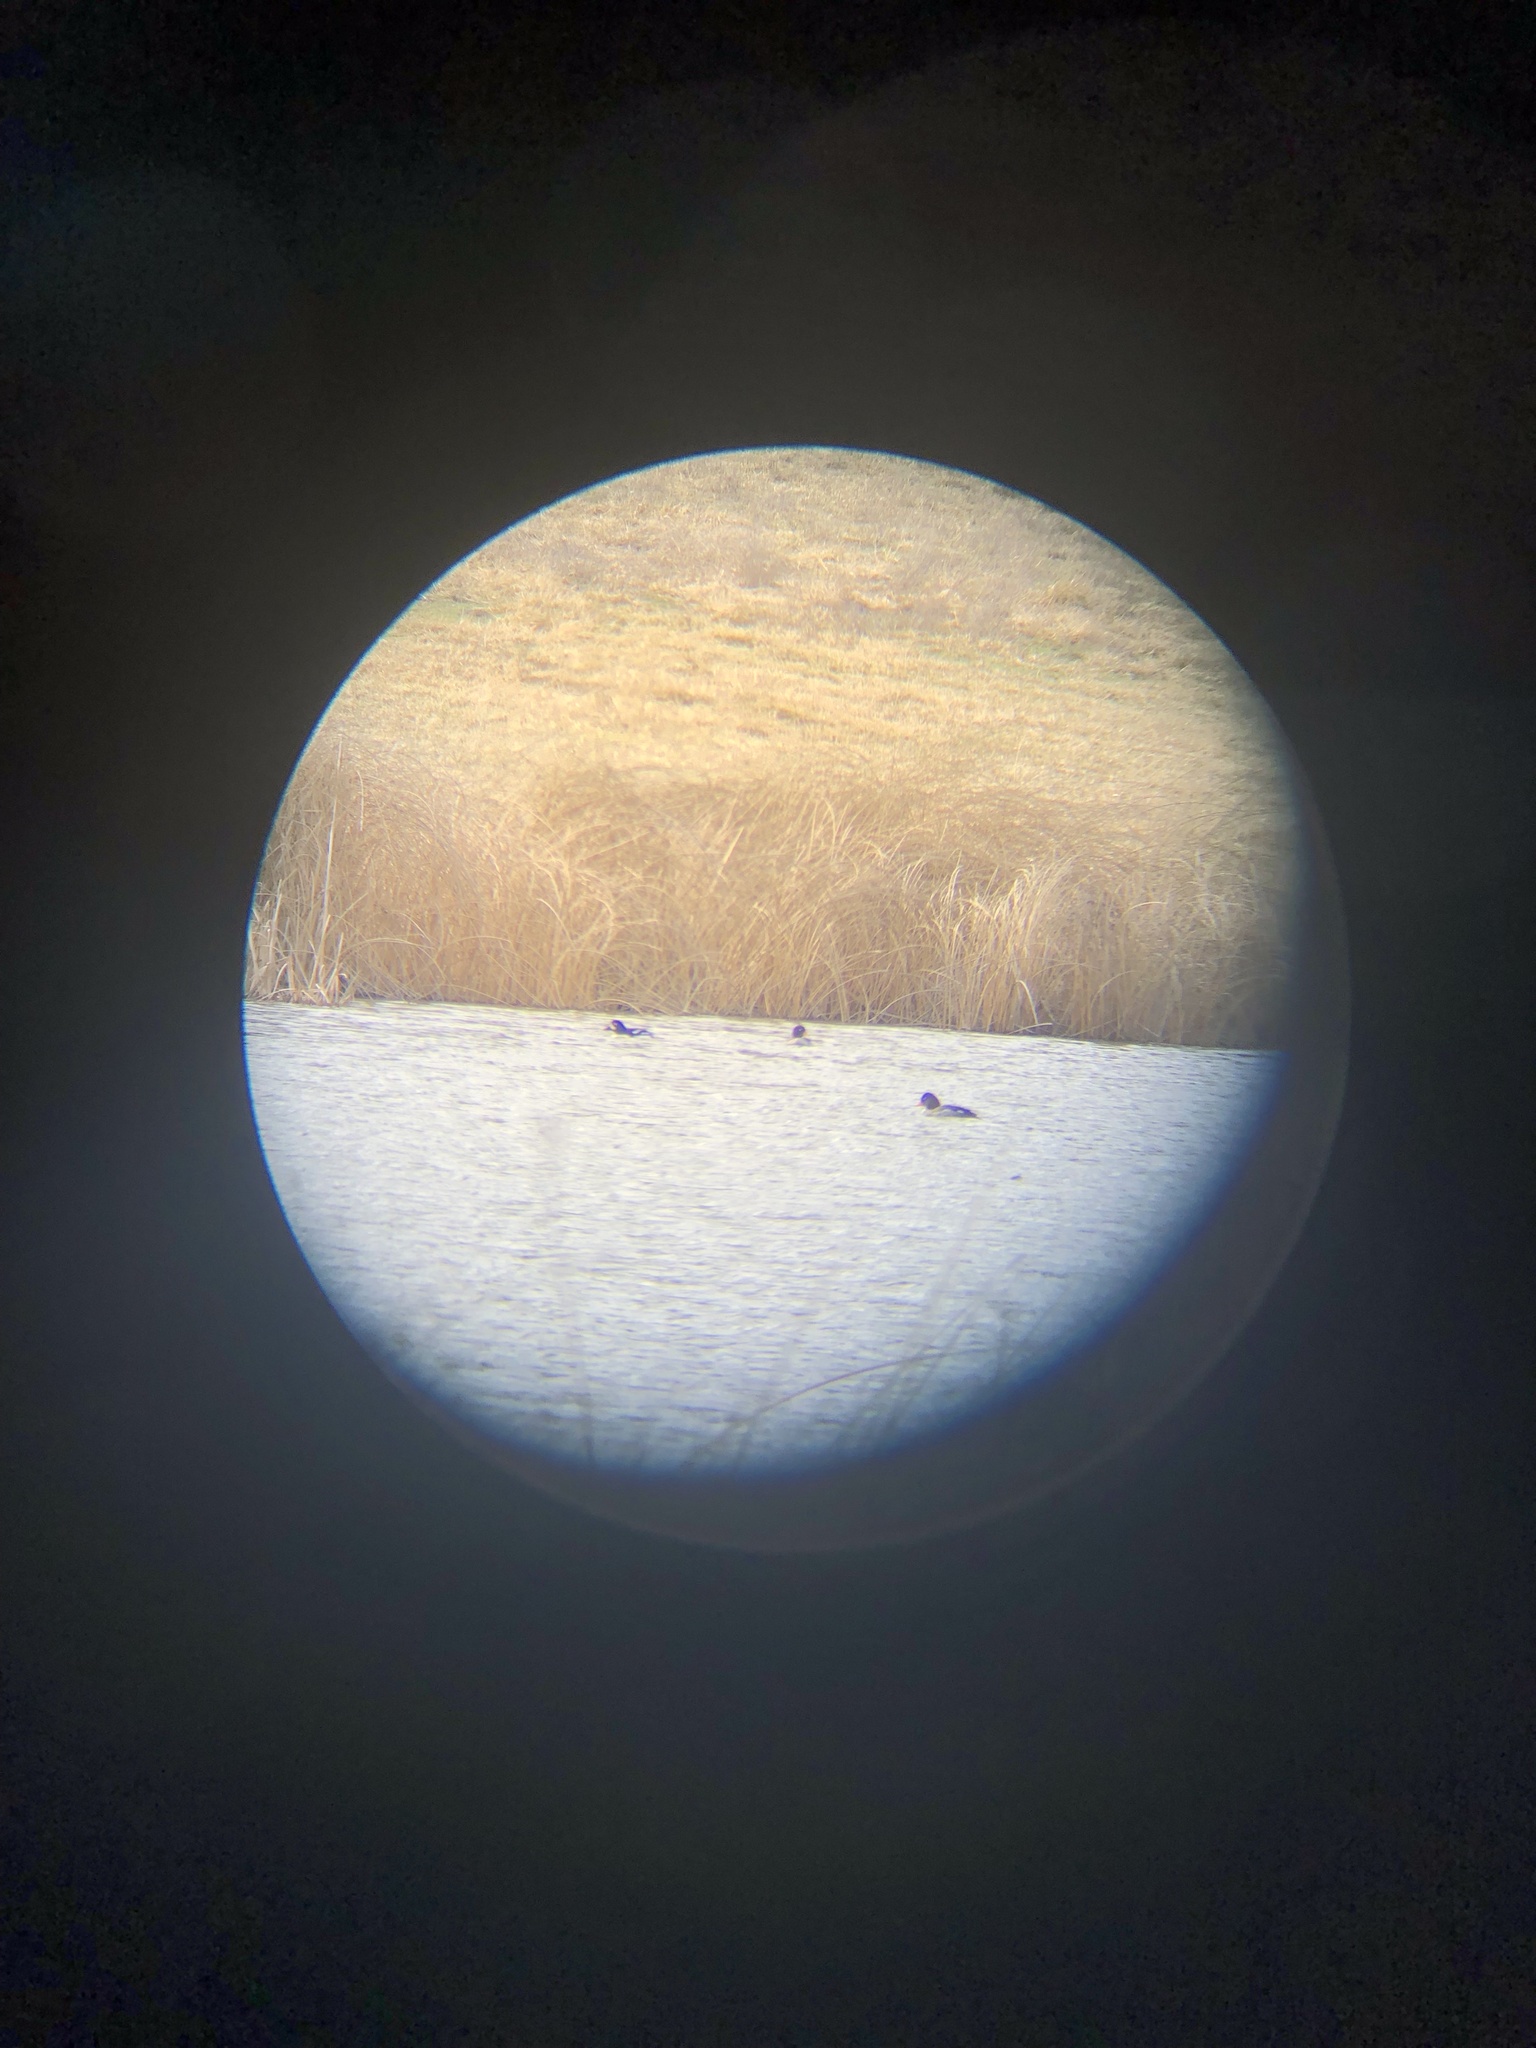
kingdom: Animalia
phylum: Chordata
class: Aves
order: Anseriformes
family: Anatidae
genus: Bucephala
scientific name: Bucephala islandica
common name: Barrow's goldeneye
